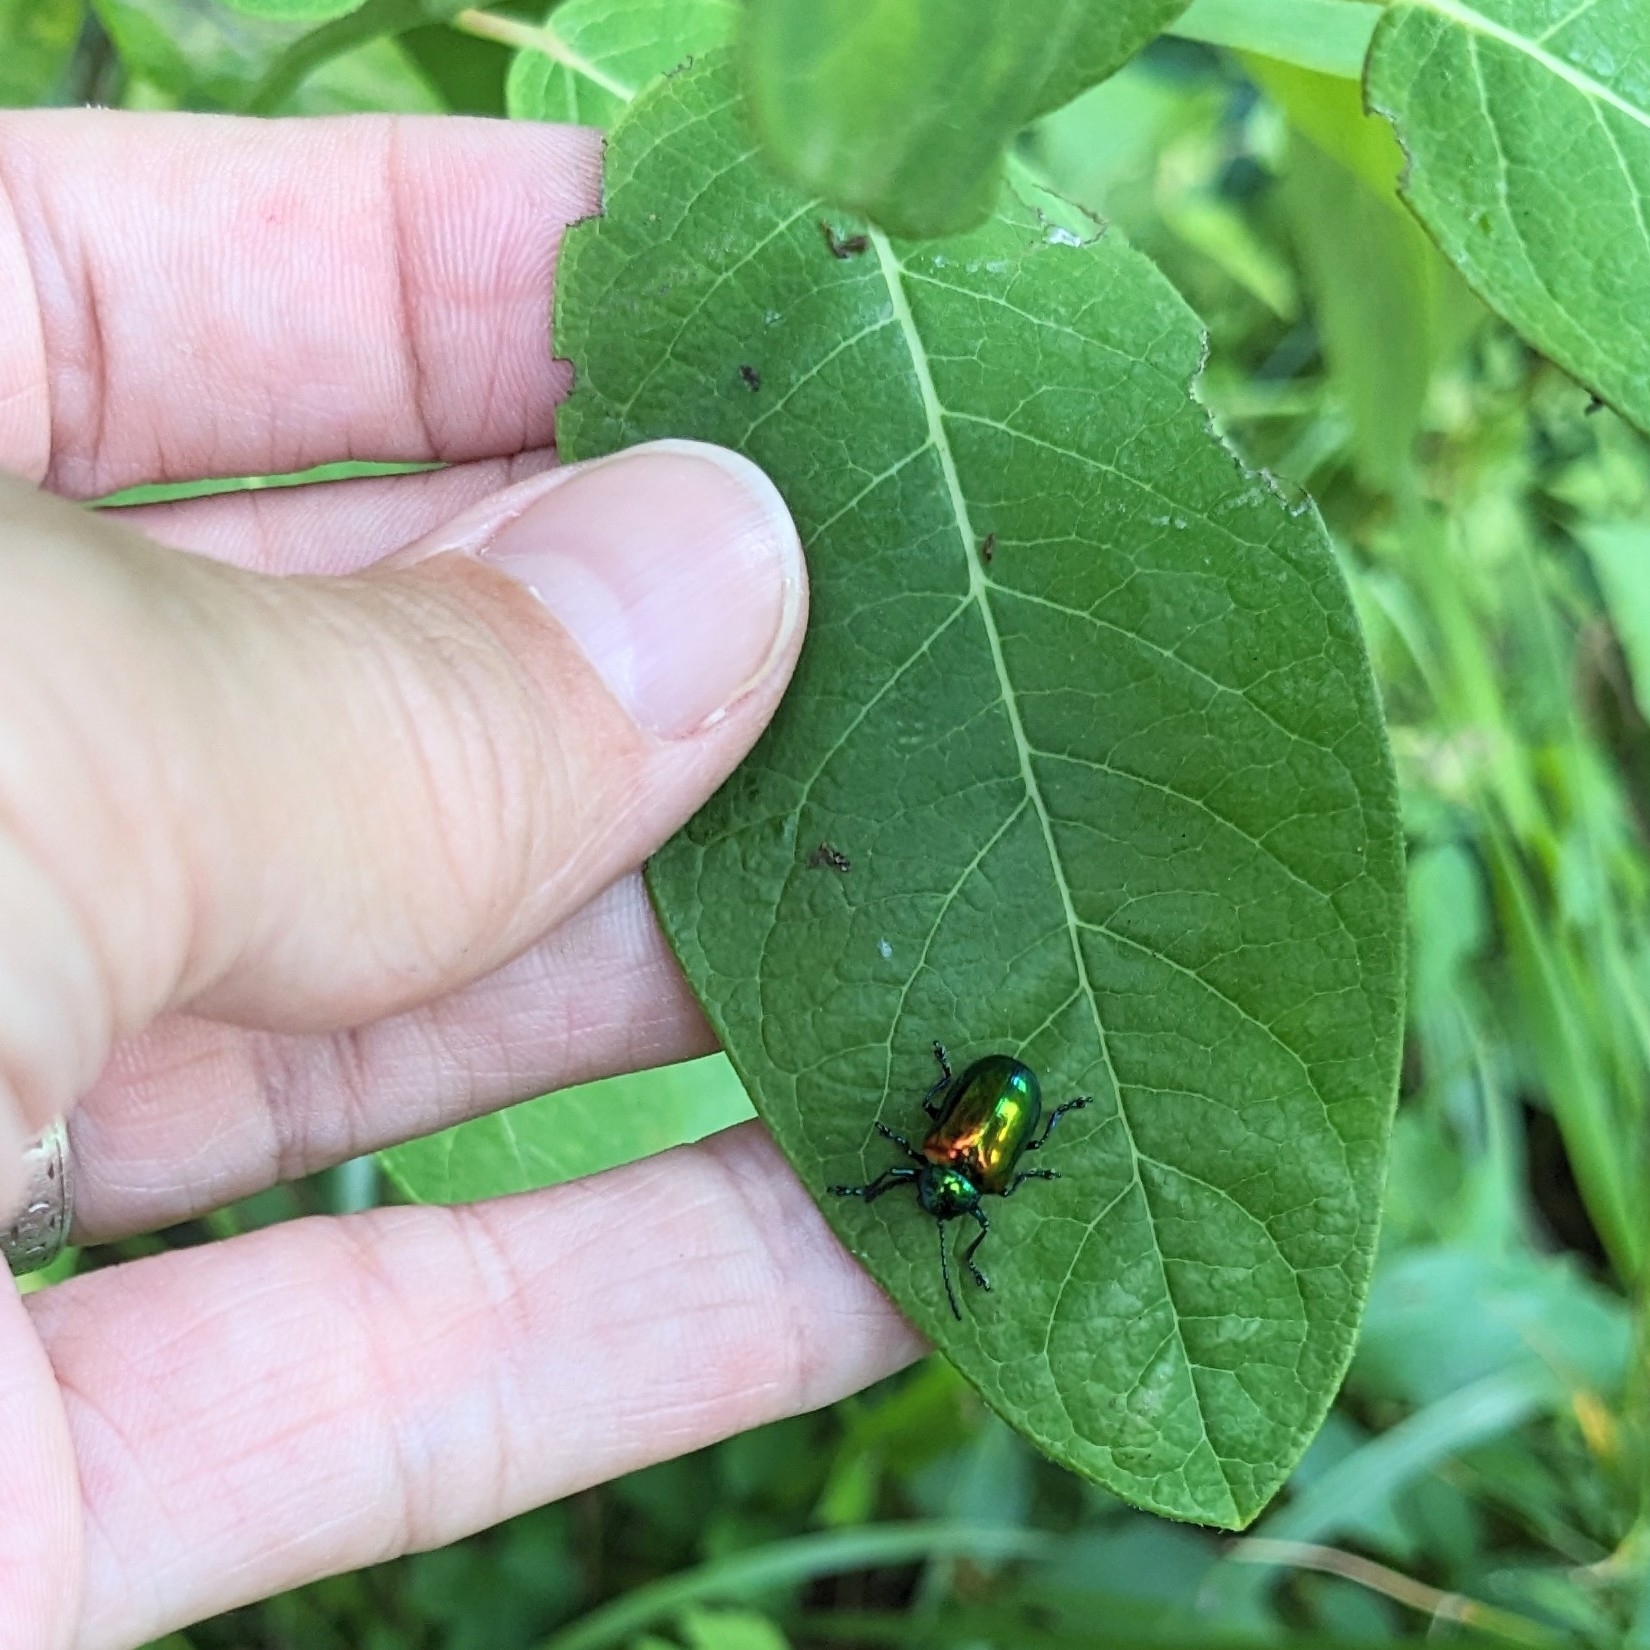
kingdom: Animalia
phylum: Arthropoda
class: Insecta
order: Coleoptera
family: Chrysomelidae
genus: Chrysochus
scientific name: Chrysochus auratus
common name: Dogbane leaf beetle
